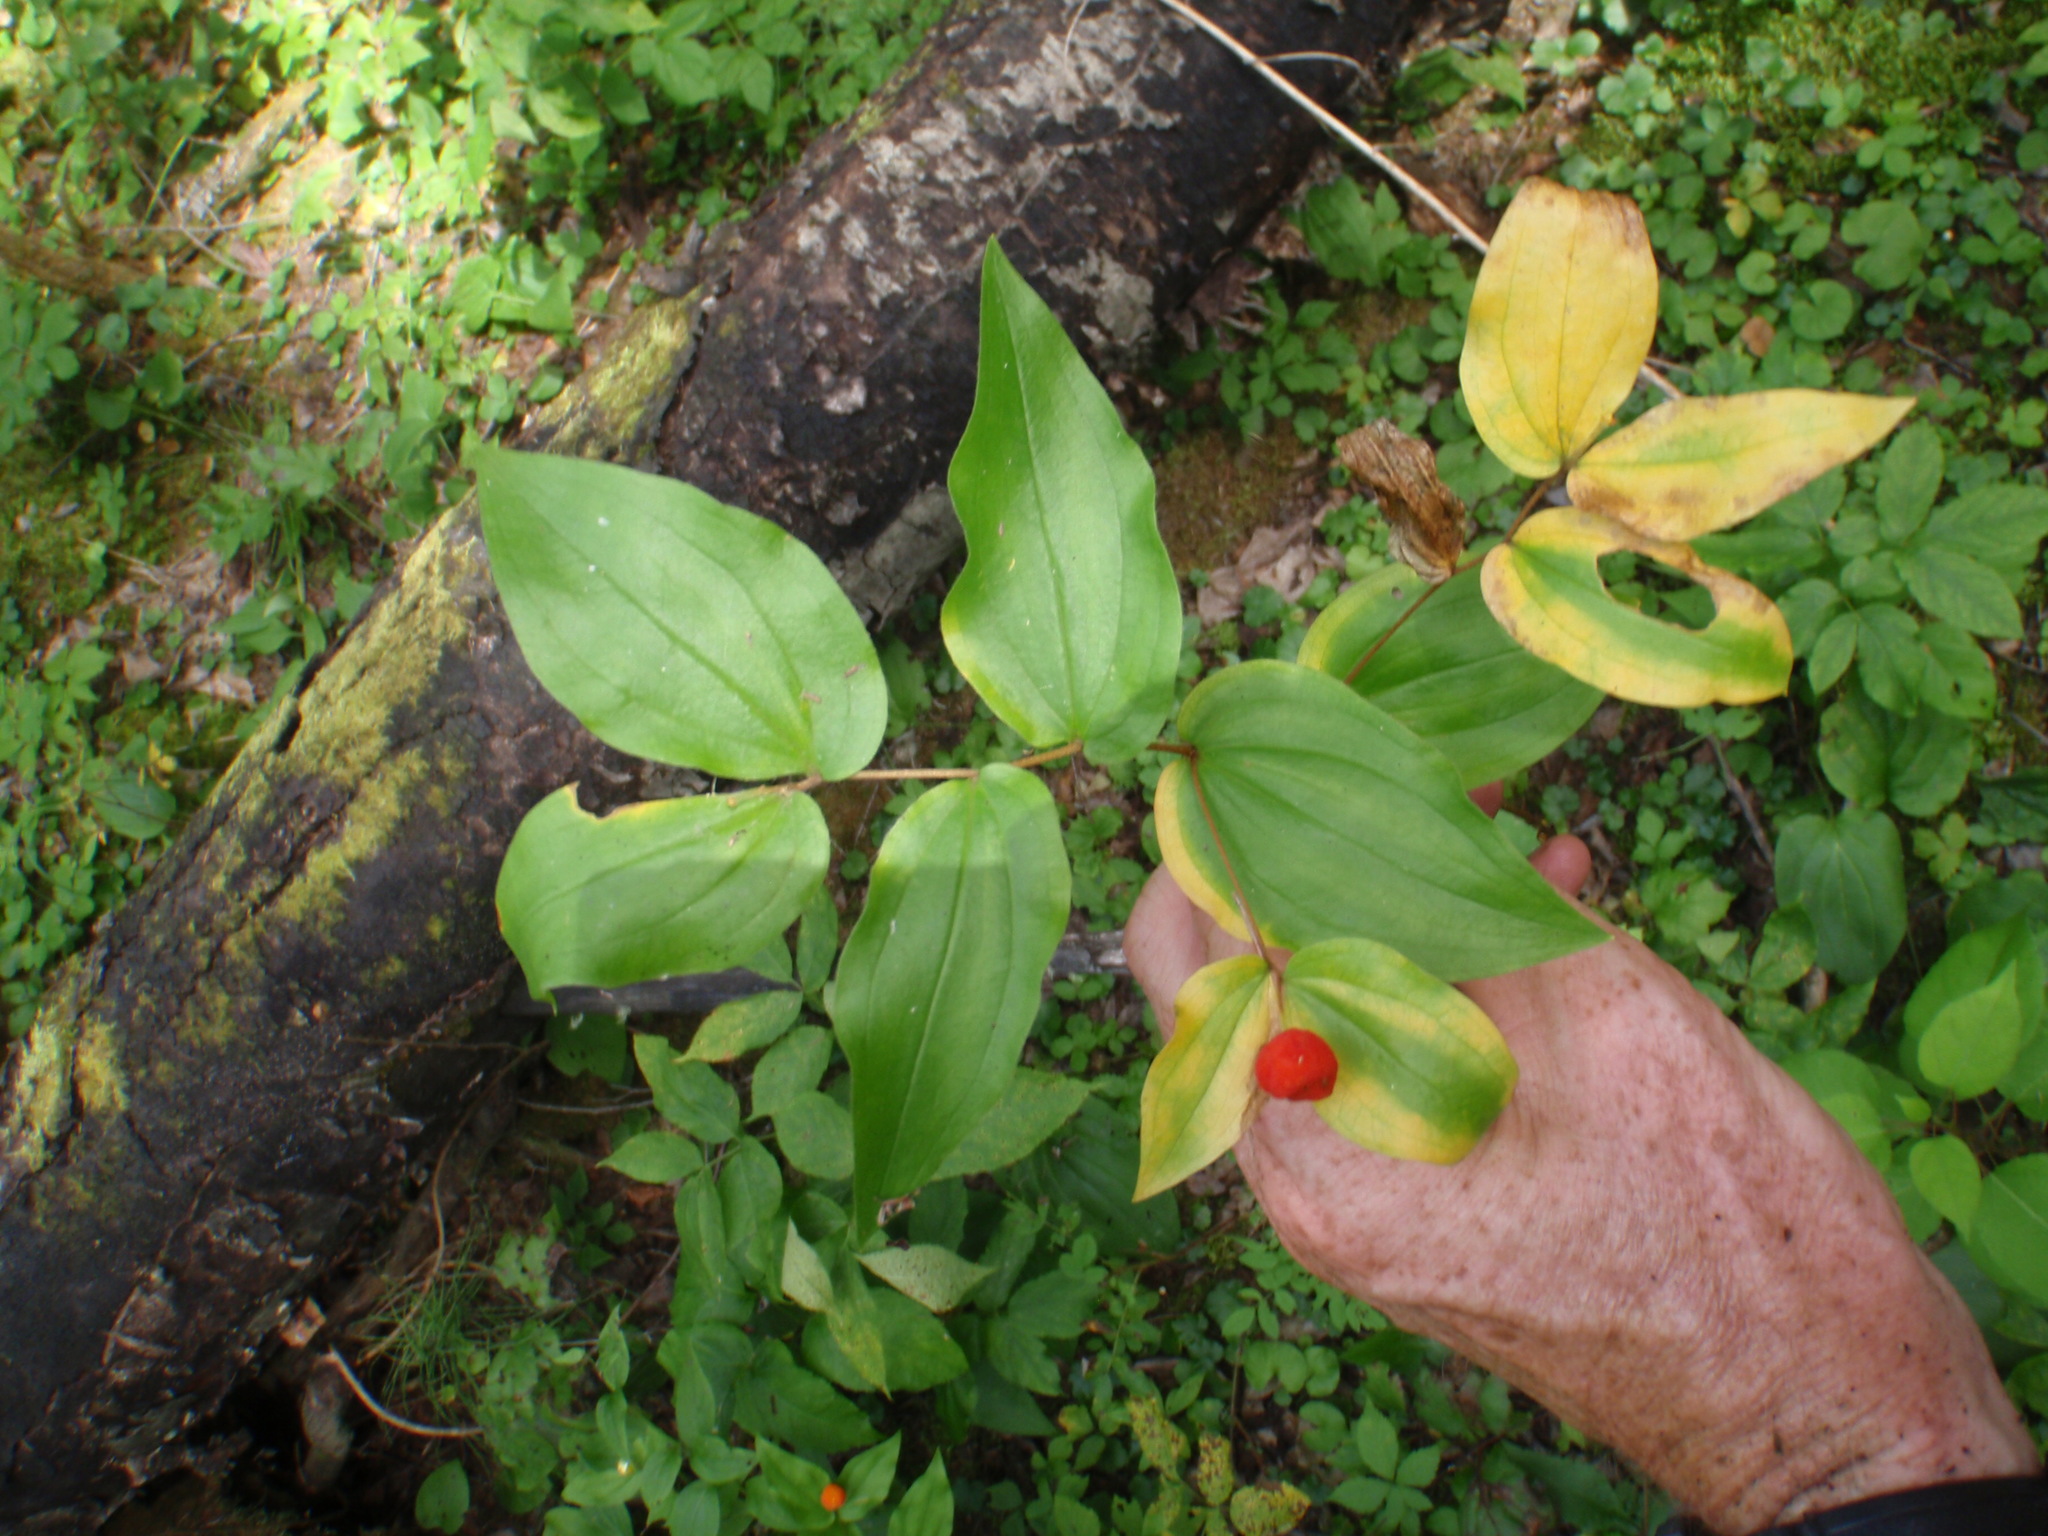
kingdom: Plantae
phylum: Tracheophyta
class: Liliopsida
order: Liliales
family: Liliaceae
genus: Prosartes
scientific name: Prosartes trachycarpa
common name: Rough-fruit fairy-bells
